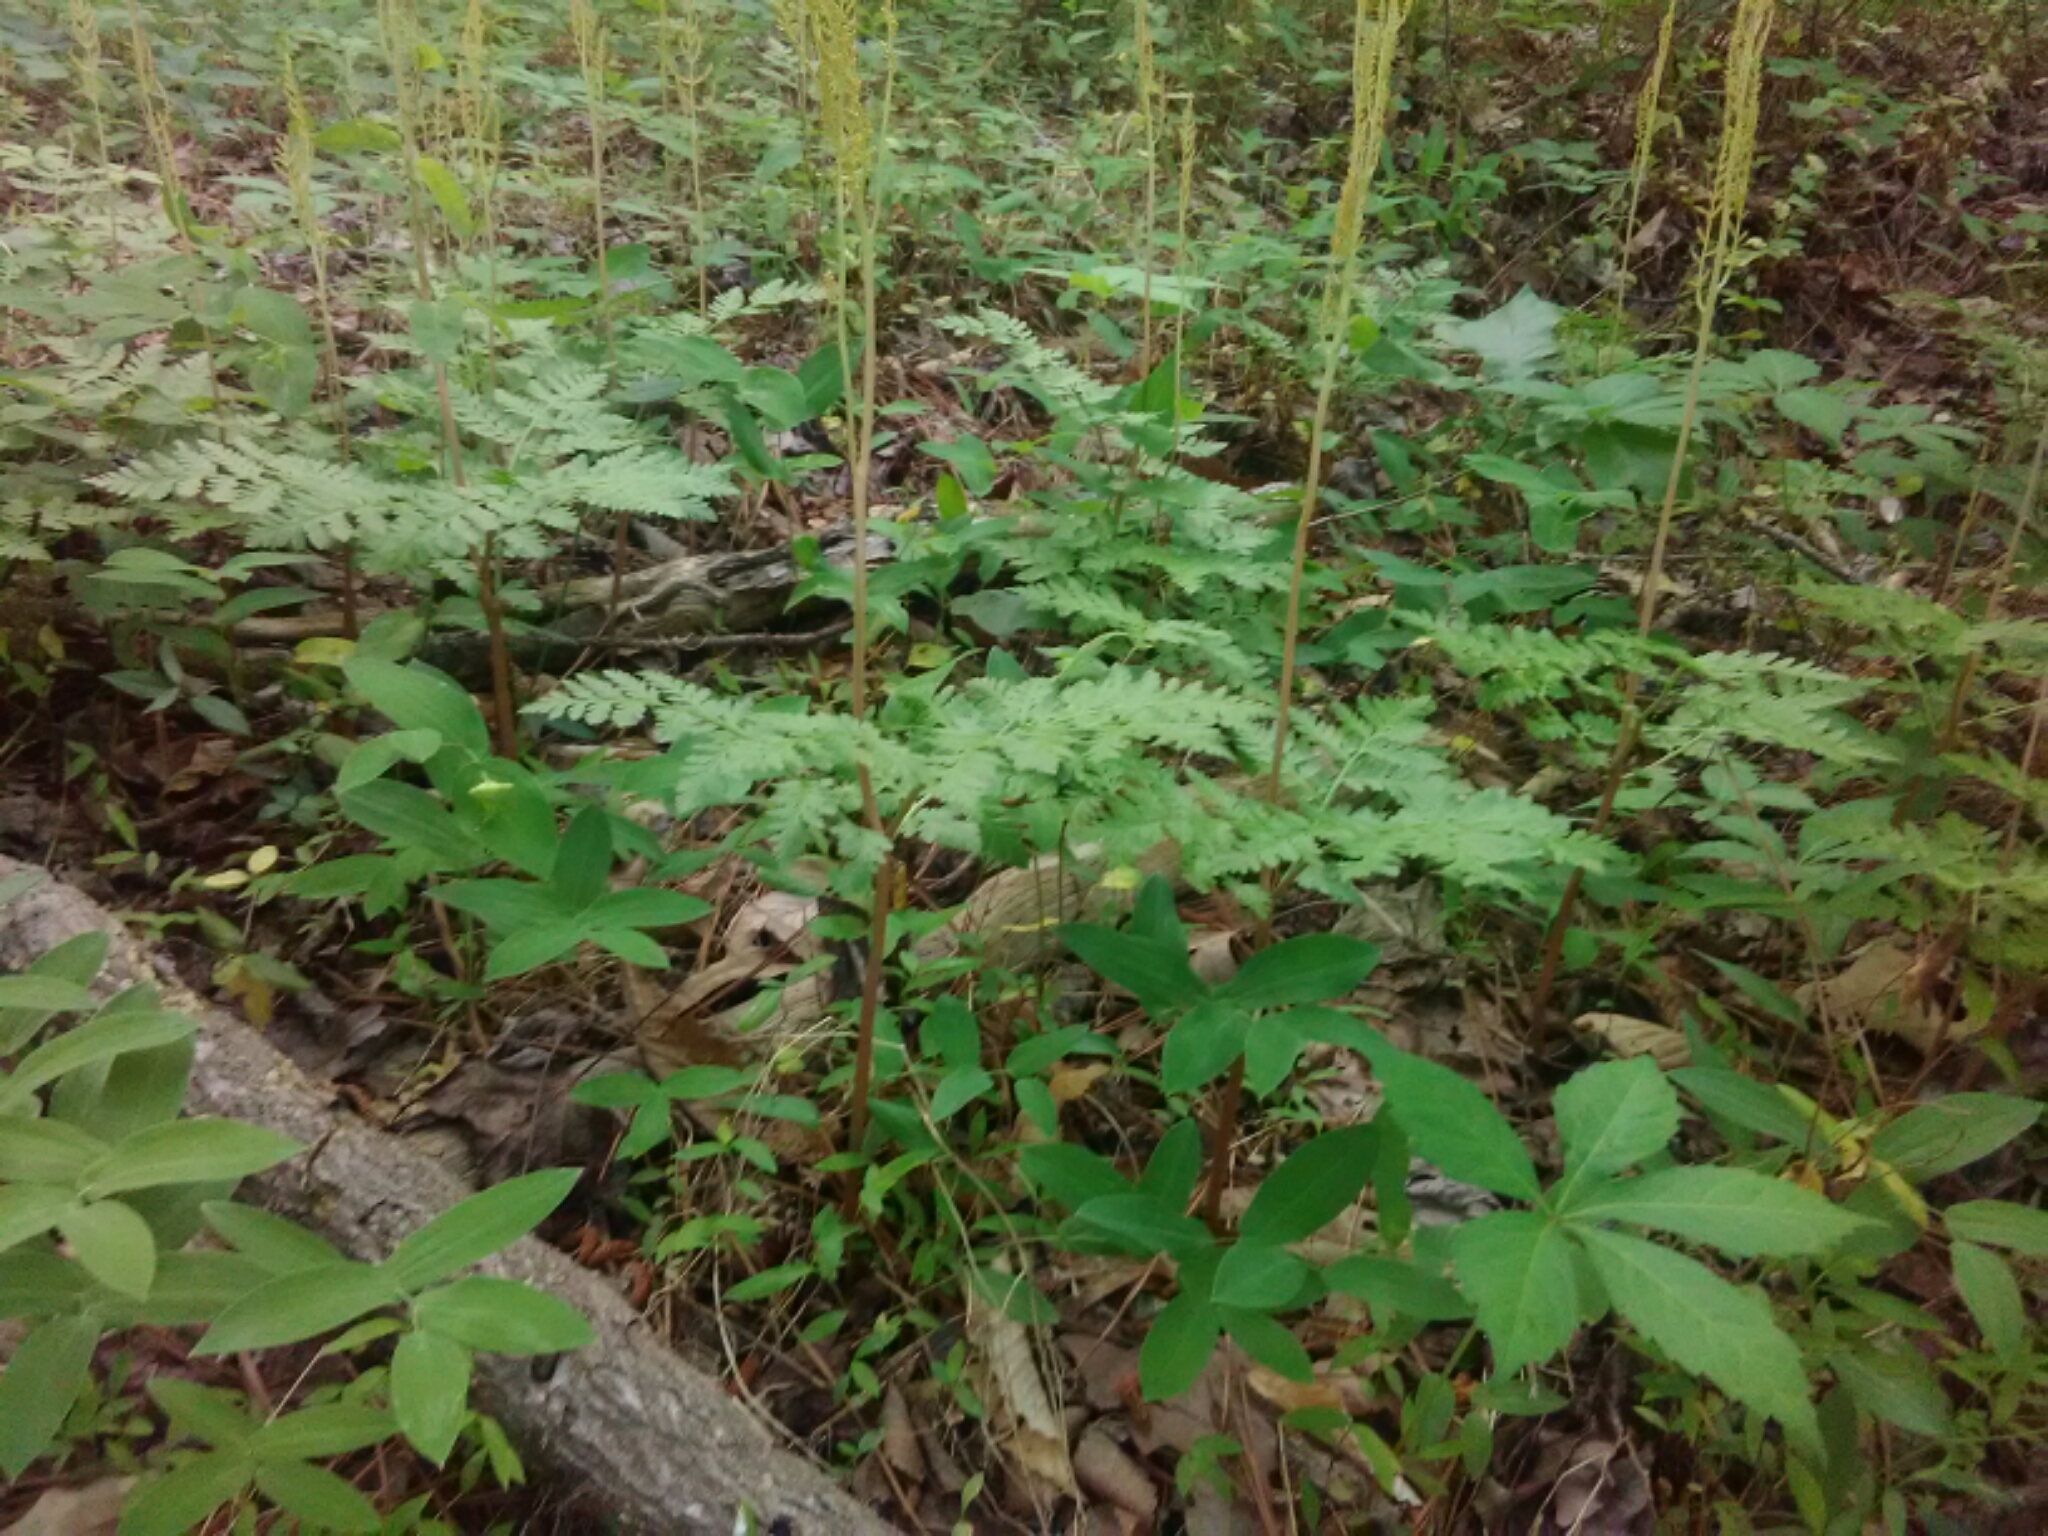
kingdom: Plantae
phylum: Tracheophyta
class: Polypodiopsida
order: Ophioglossales
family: Ophioglossaceae
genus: Botrypus
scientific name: Botrypus virginianus
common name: Common grapefern
